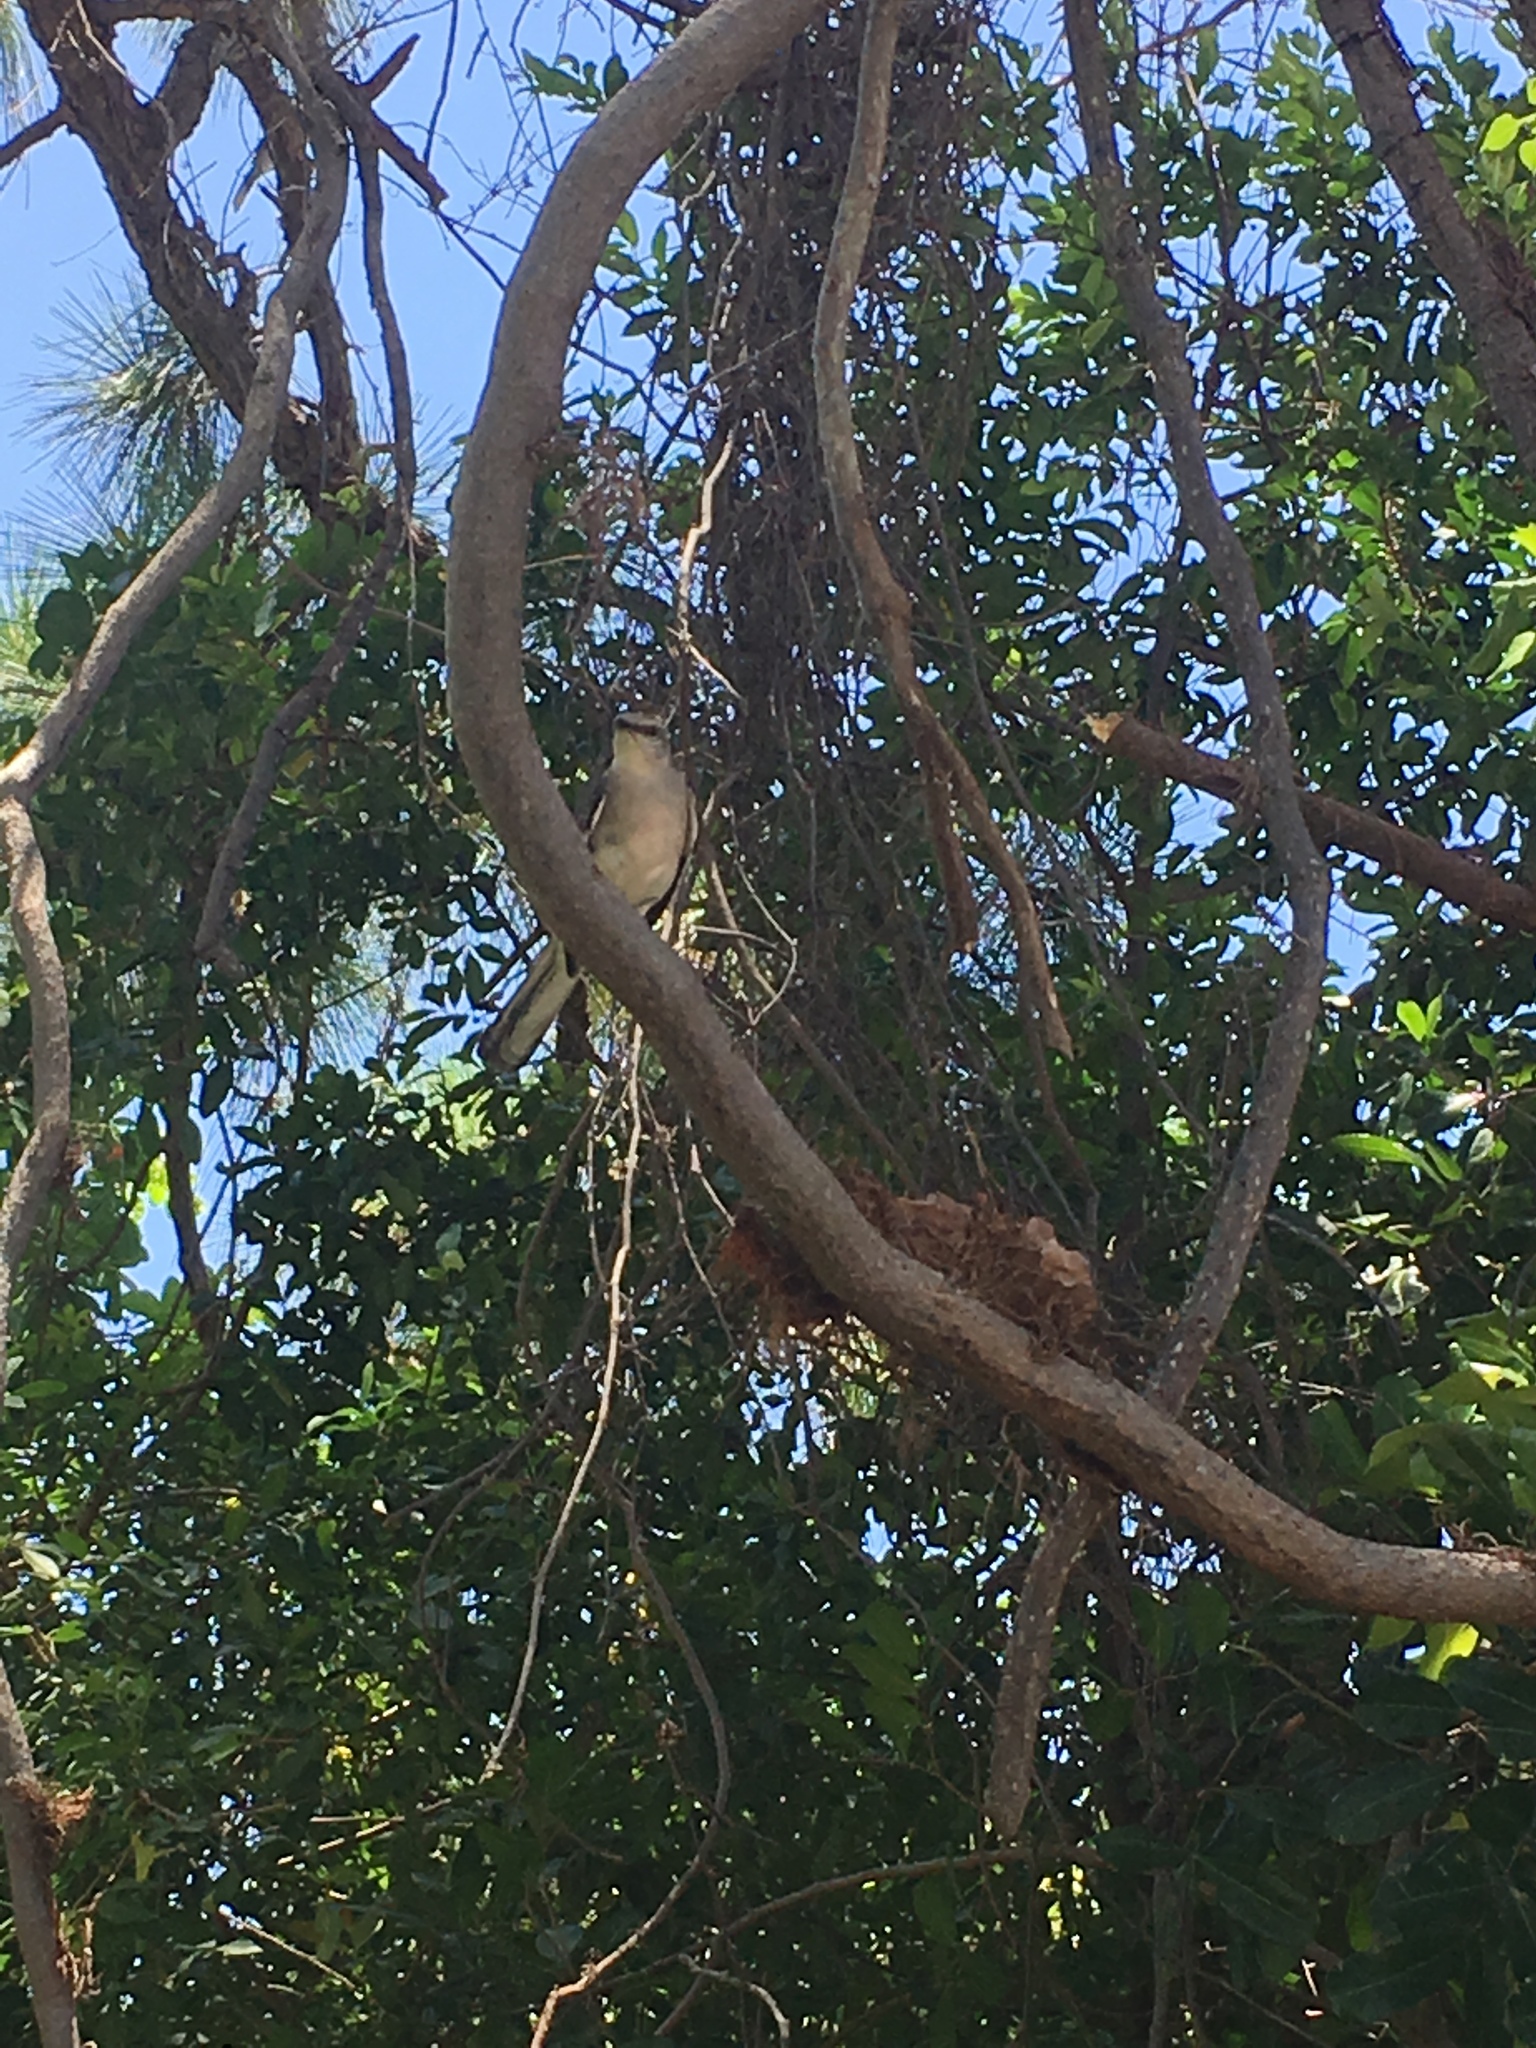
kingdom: Animalia
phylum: Chordata
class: Aves
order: Passeriformes
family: Mimidae
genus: Mimus
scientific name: Mimus polyglottos
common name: Northern mockingbird
